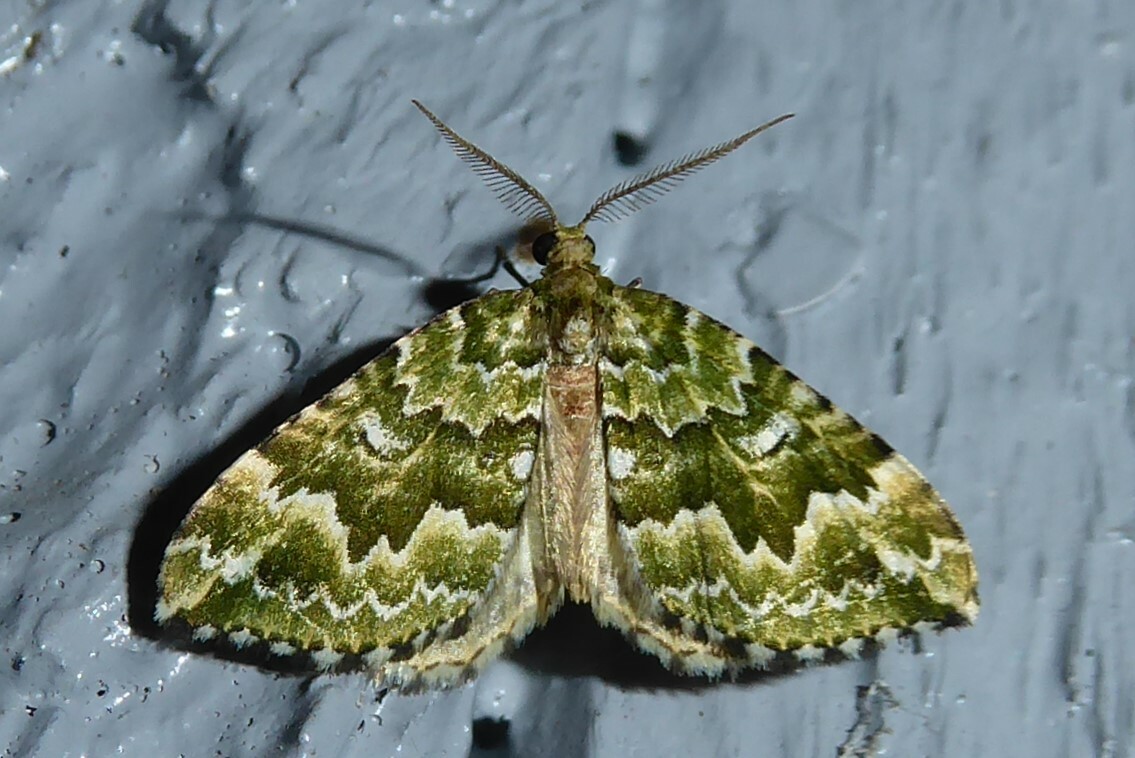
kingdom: Animalia
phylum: Arthropoda
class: Insecta
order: Lepidoptera
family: Geometridae
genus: Asaphodes
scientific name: Asaphodes beata
